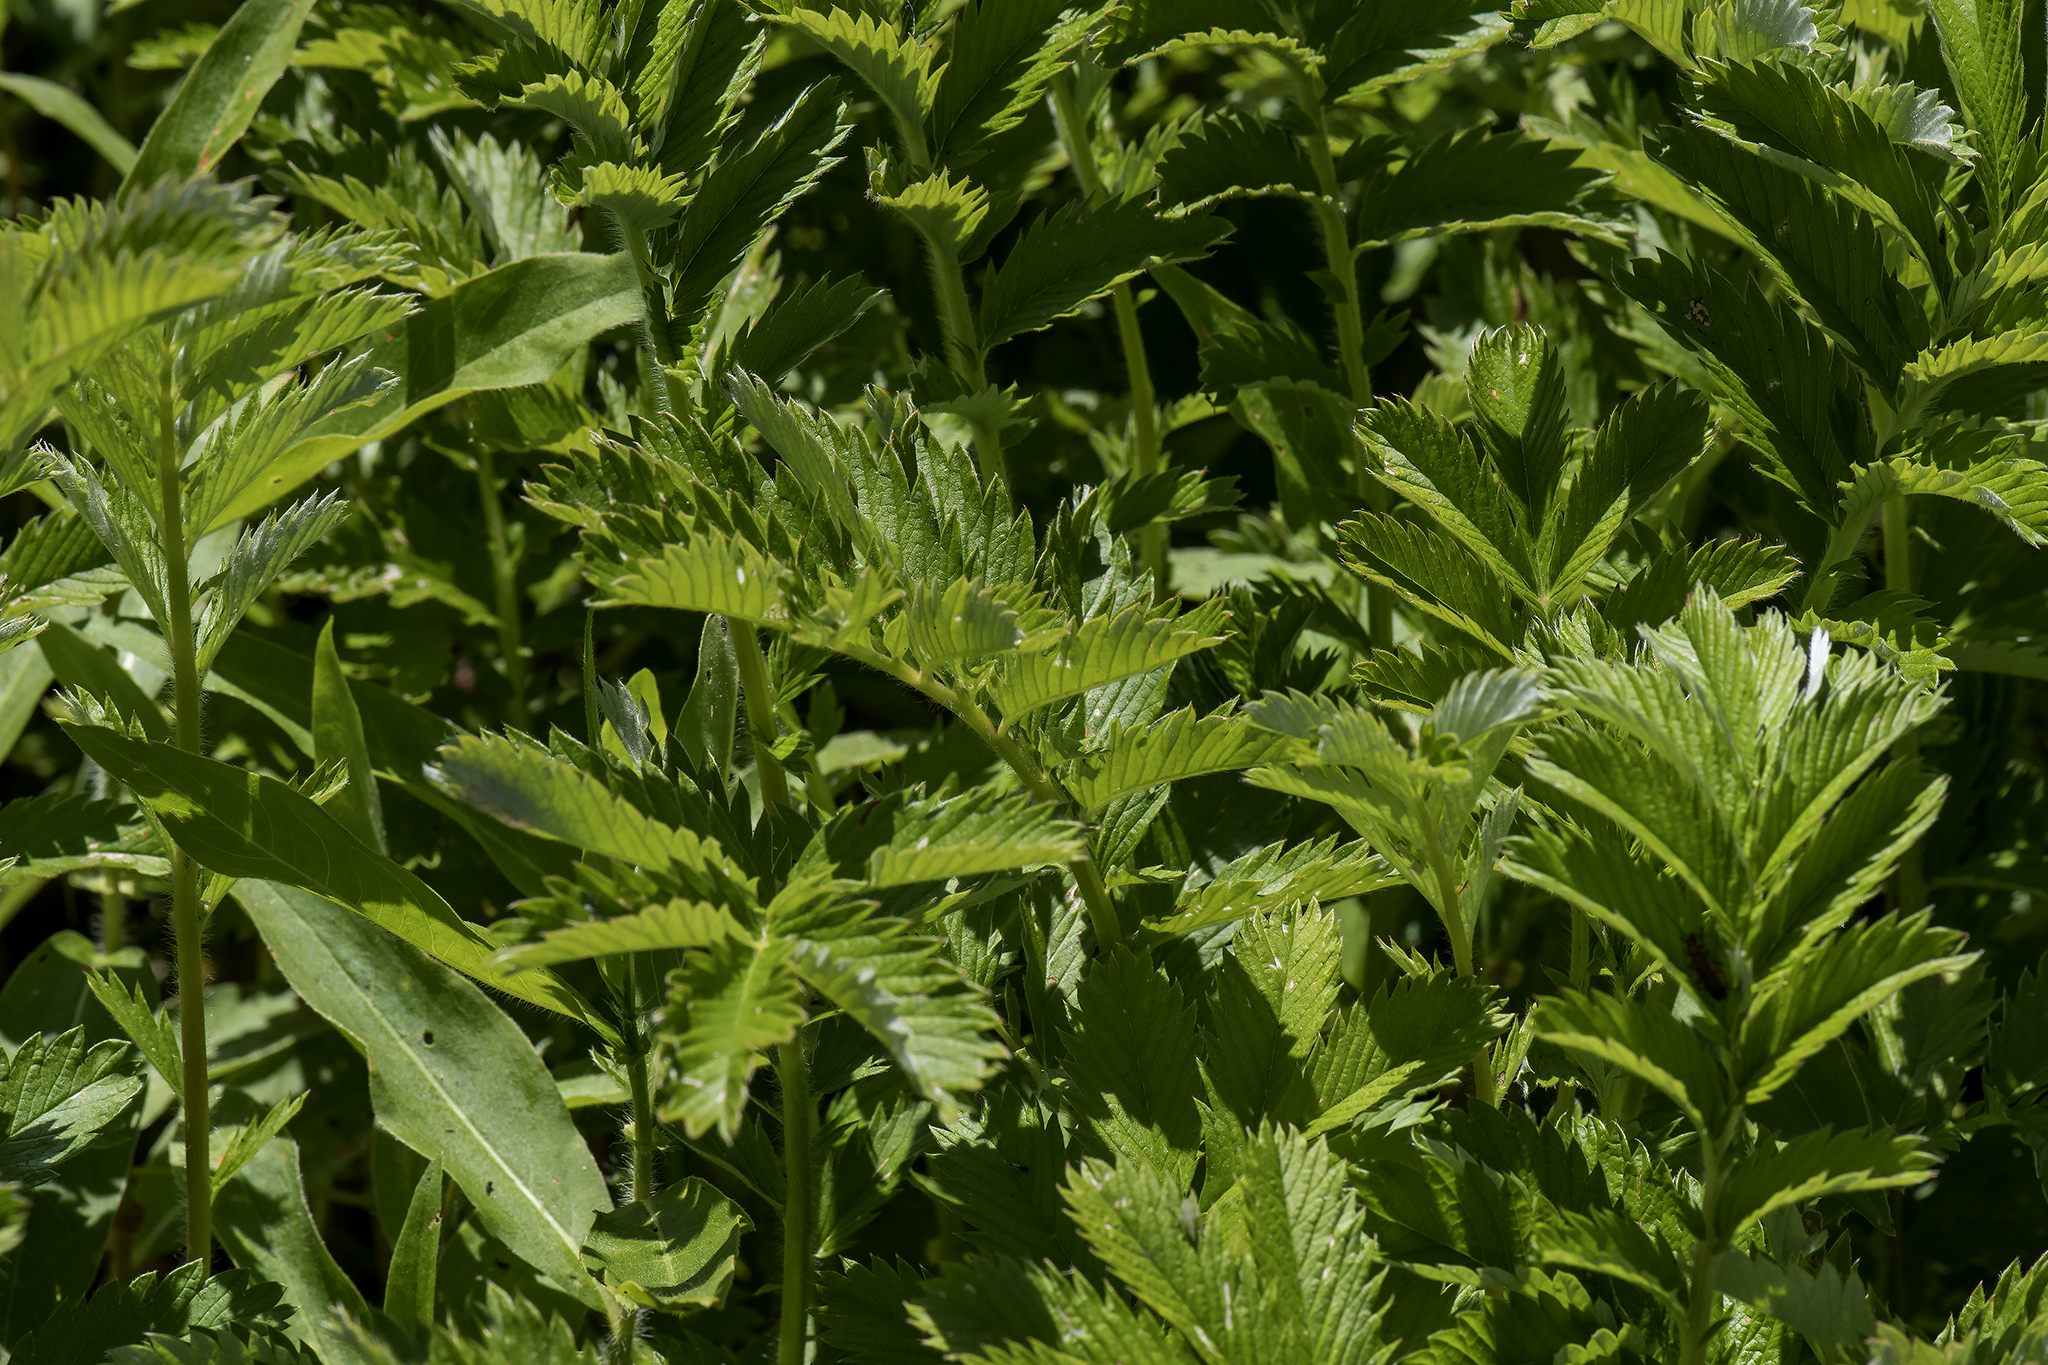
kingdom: Plantae
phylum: Tracheophyta
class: Magnoliopsida
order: Rosales
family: Rosaceae
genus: Argentina
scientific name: Argentina anserina
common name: Common silverweed
